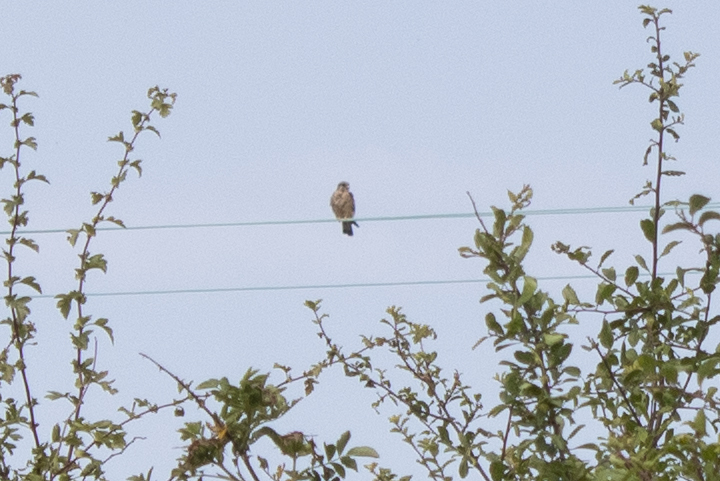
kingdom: Animalia
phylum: Chordata
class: Aves
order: Falconiformes
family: Falconidae
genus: Falco
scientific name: Falco tinnunculus
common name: Common kestrel
